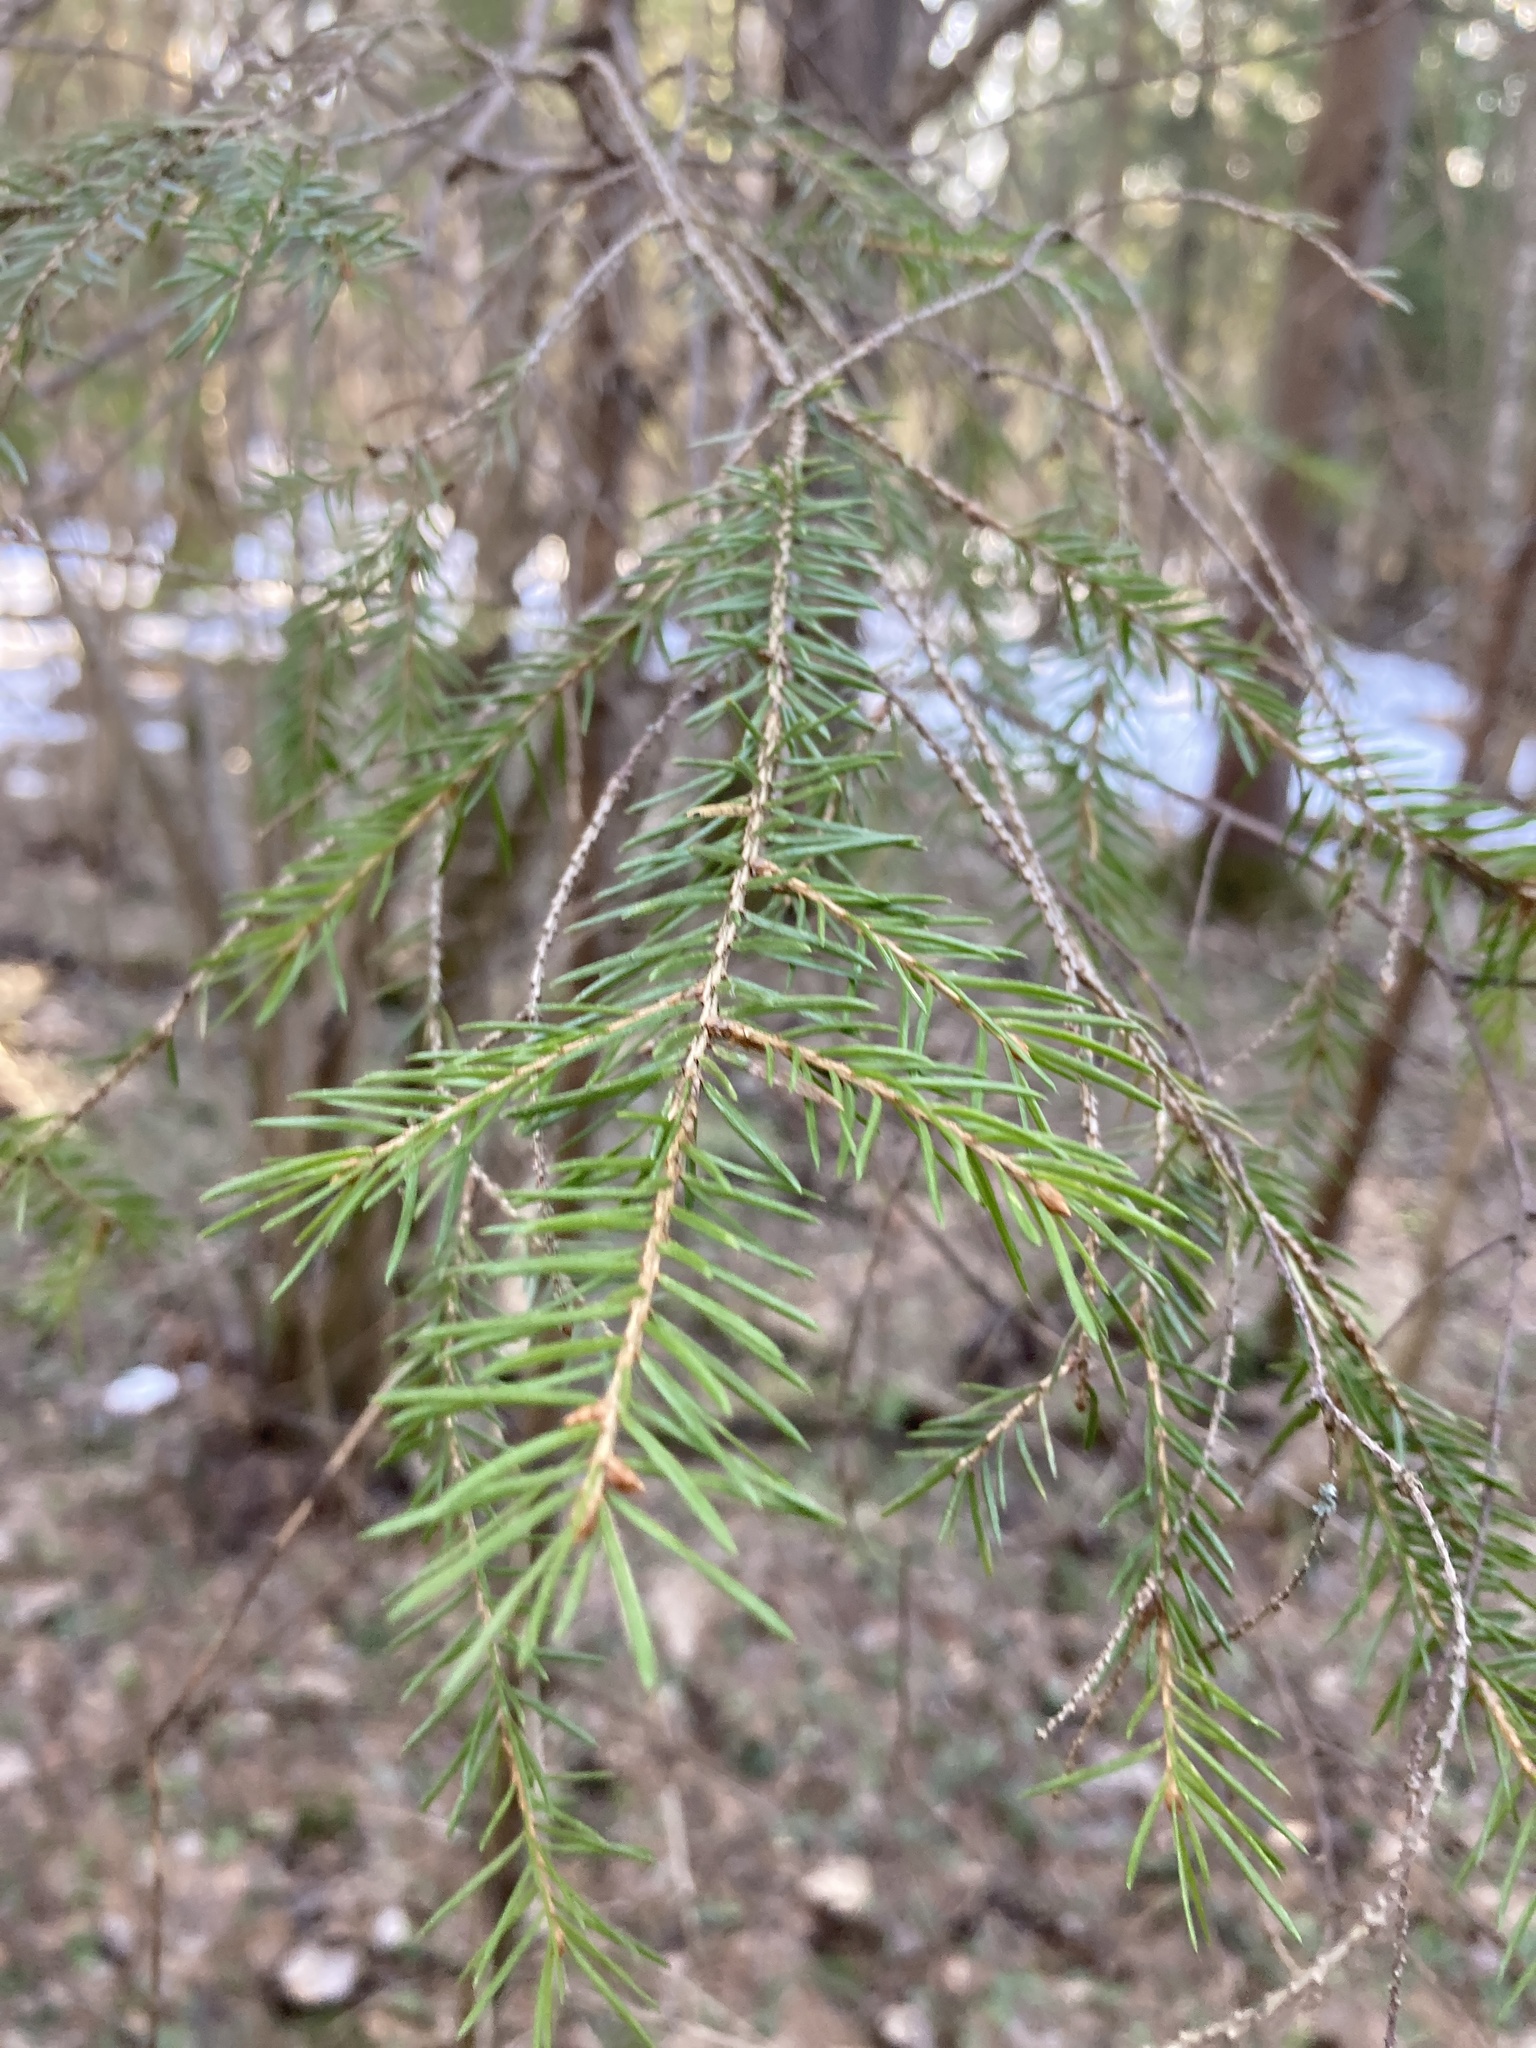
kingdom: Plantae
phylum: Tracheophyta
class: Pinopsida
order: Pinales
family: Pinaceae
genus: Picea
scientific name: Picea abies
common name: Norway spruce
